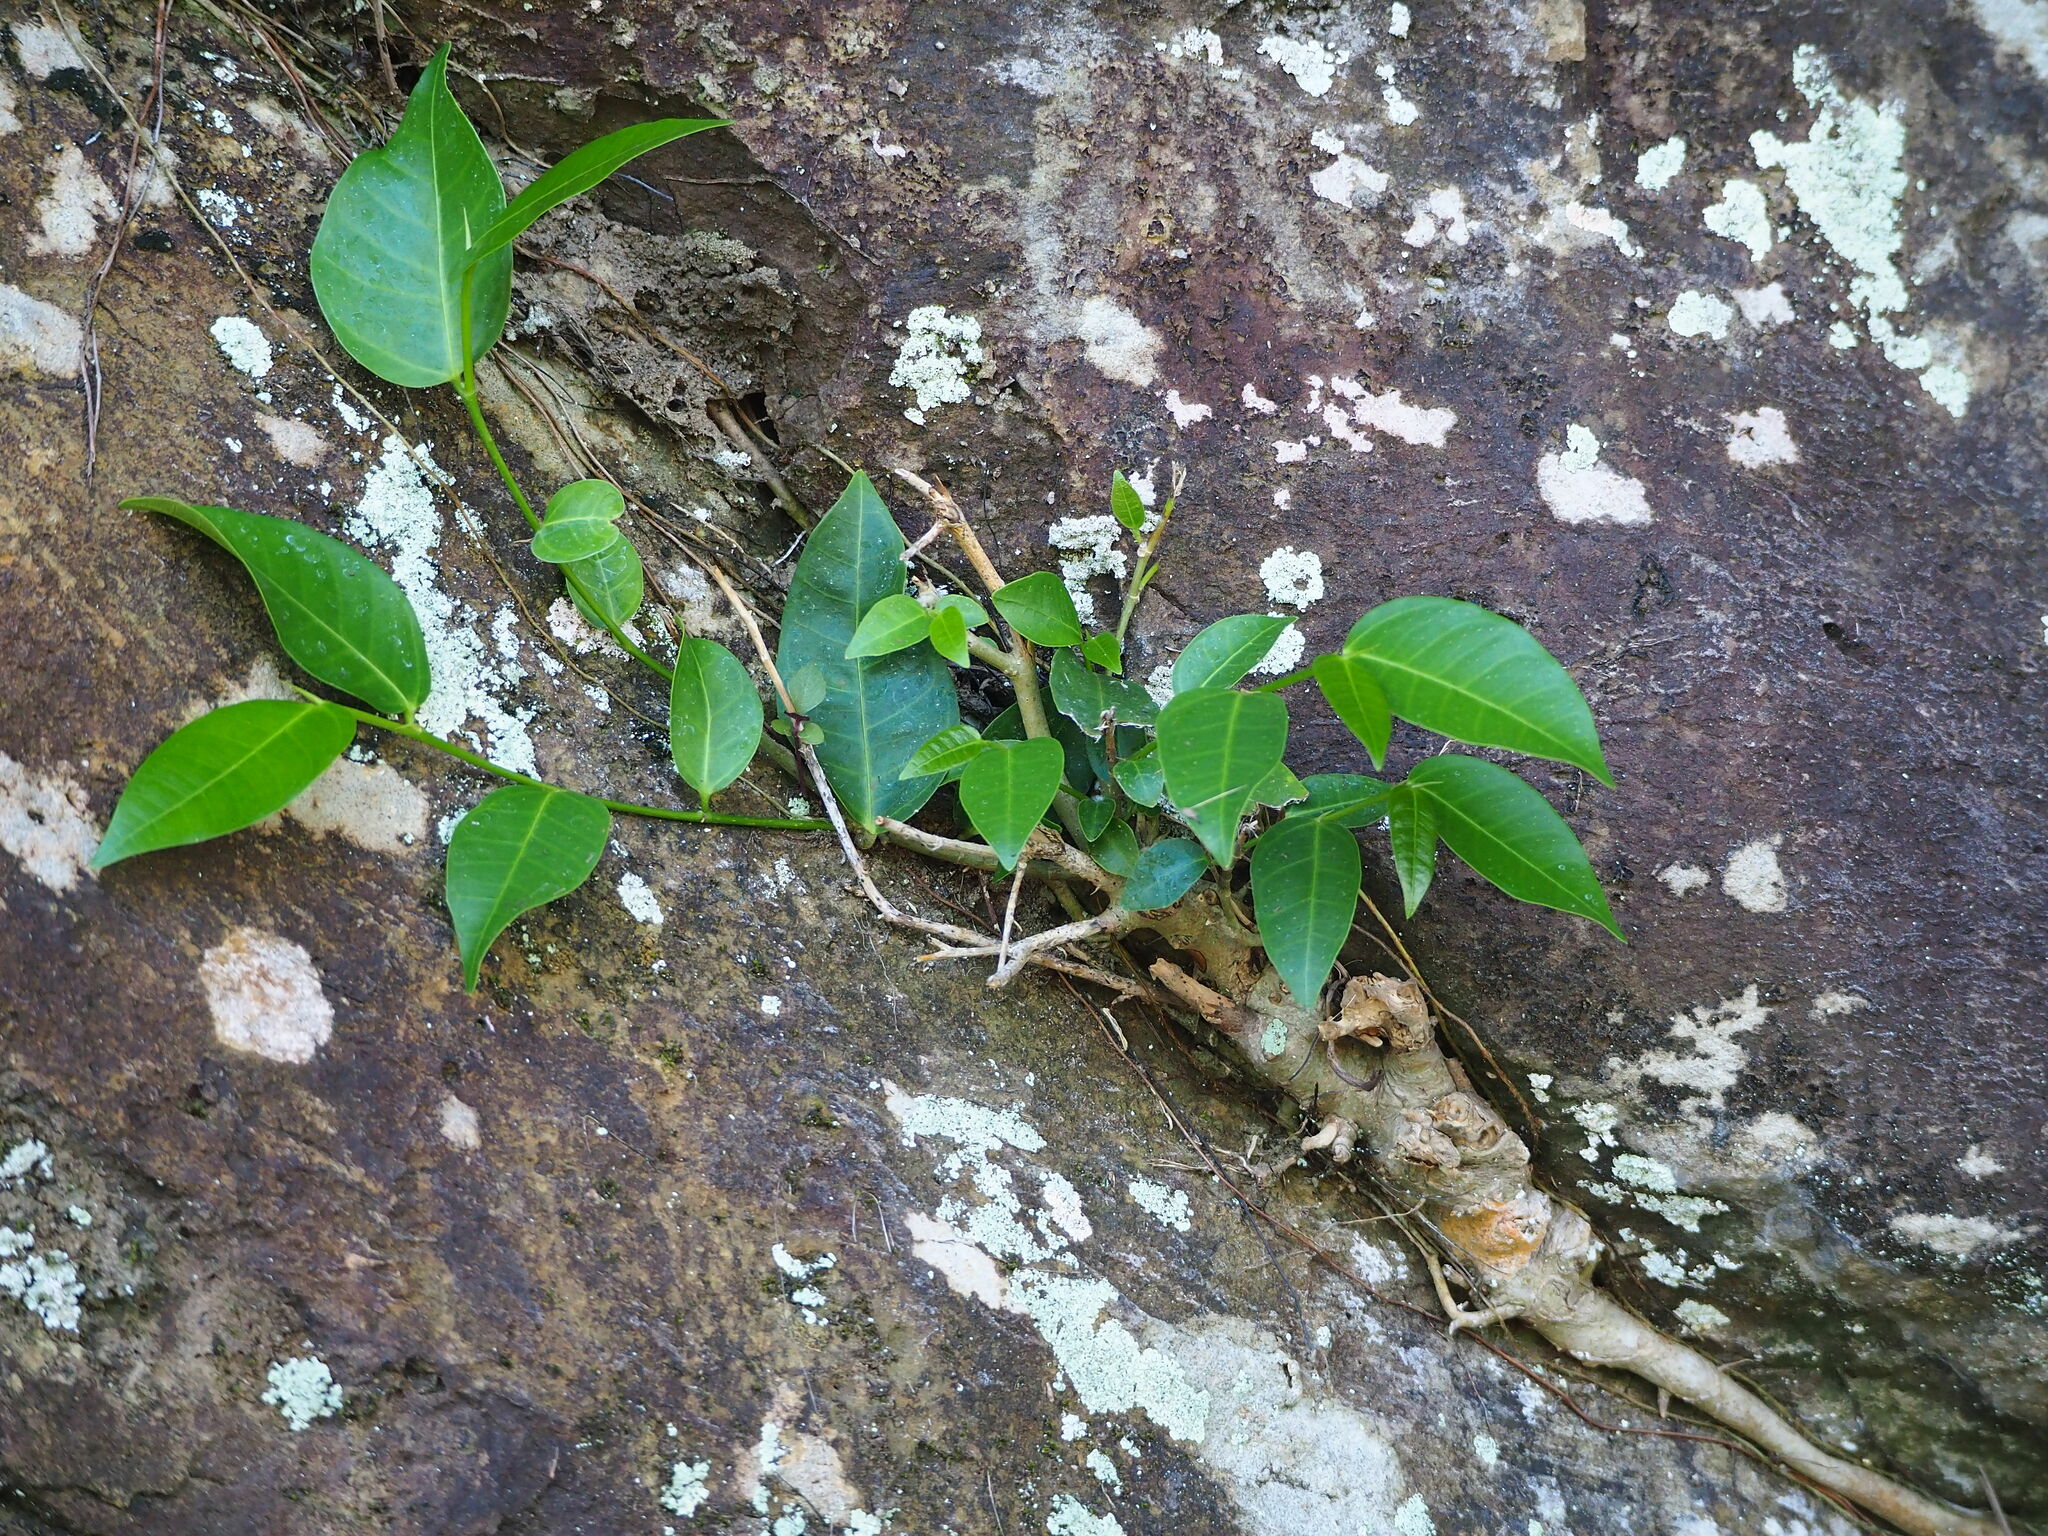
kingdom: Plantae
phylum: Tracheophyta
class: Magnoliopsida
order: Rosales
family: Moraceae
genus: Ficus
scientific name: Ficus virgata
